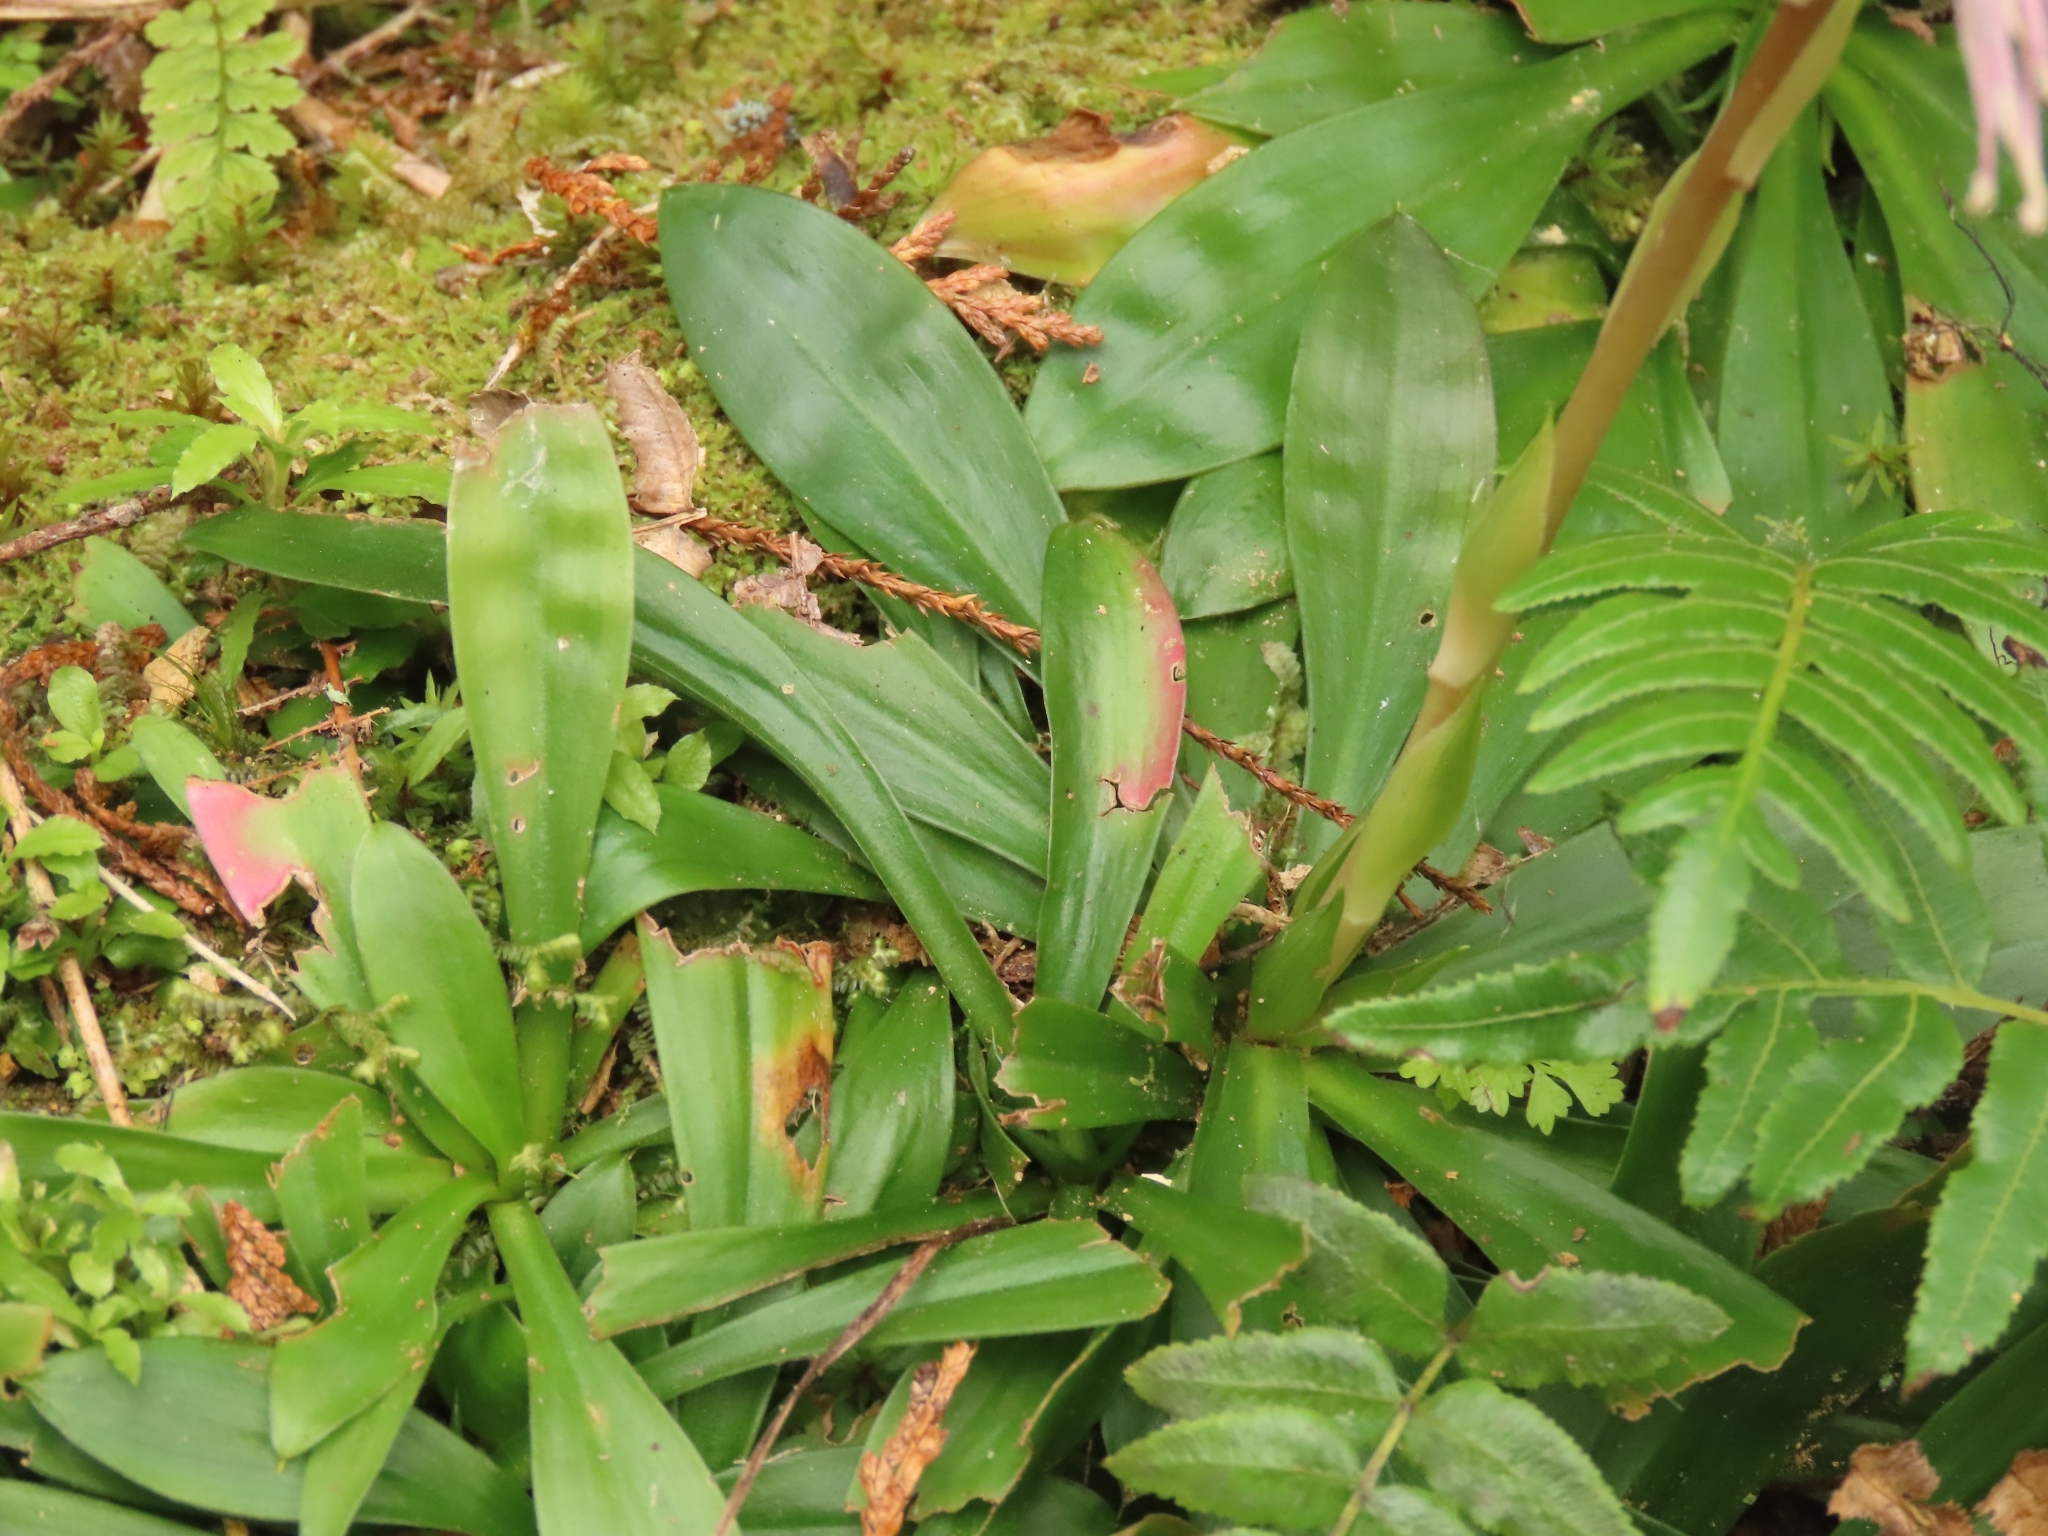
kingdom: Plantae
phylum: Tracheophyta
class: Liliopsida
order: Liliales
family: Melanthiaceae
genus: Helonias
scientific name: Helonias umbellata
